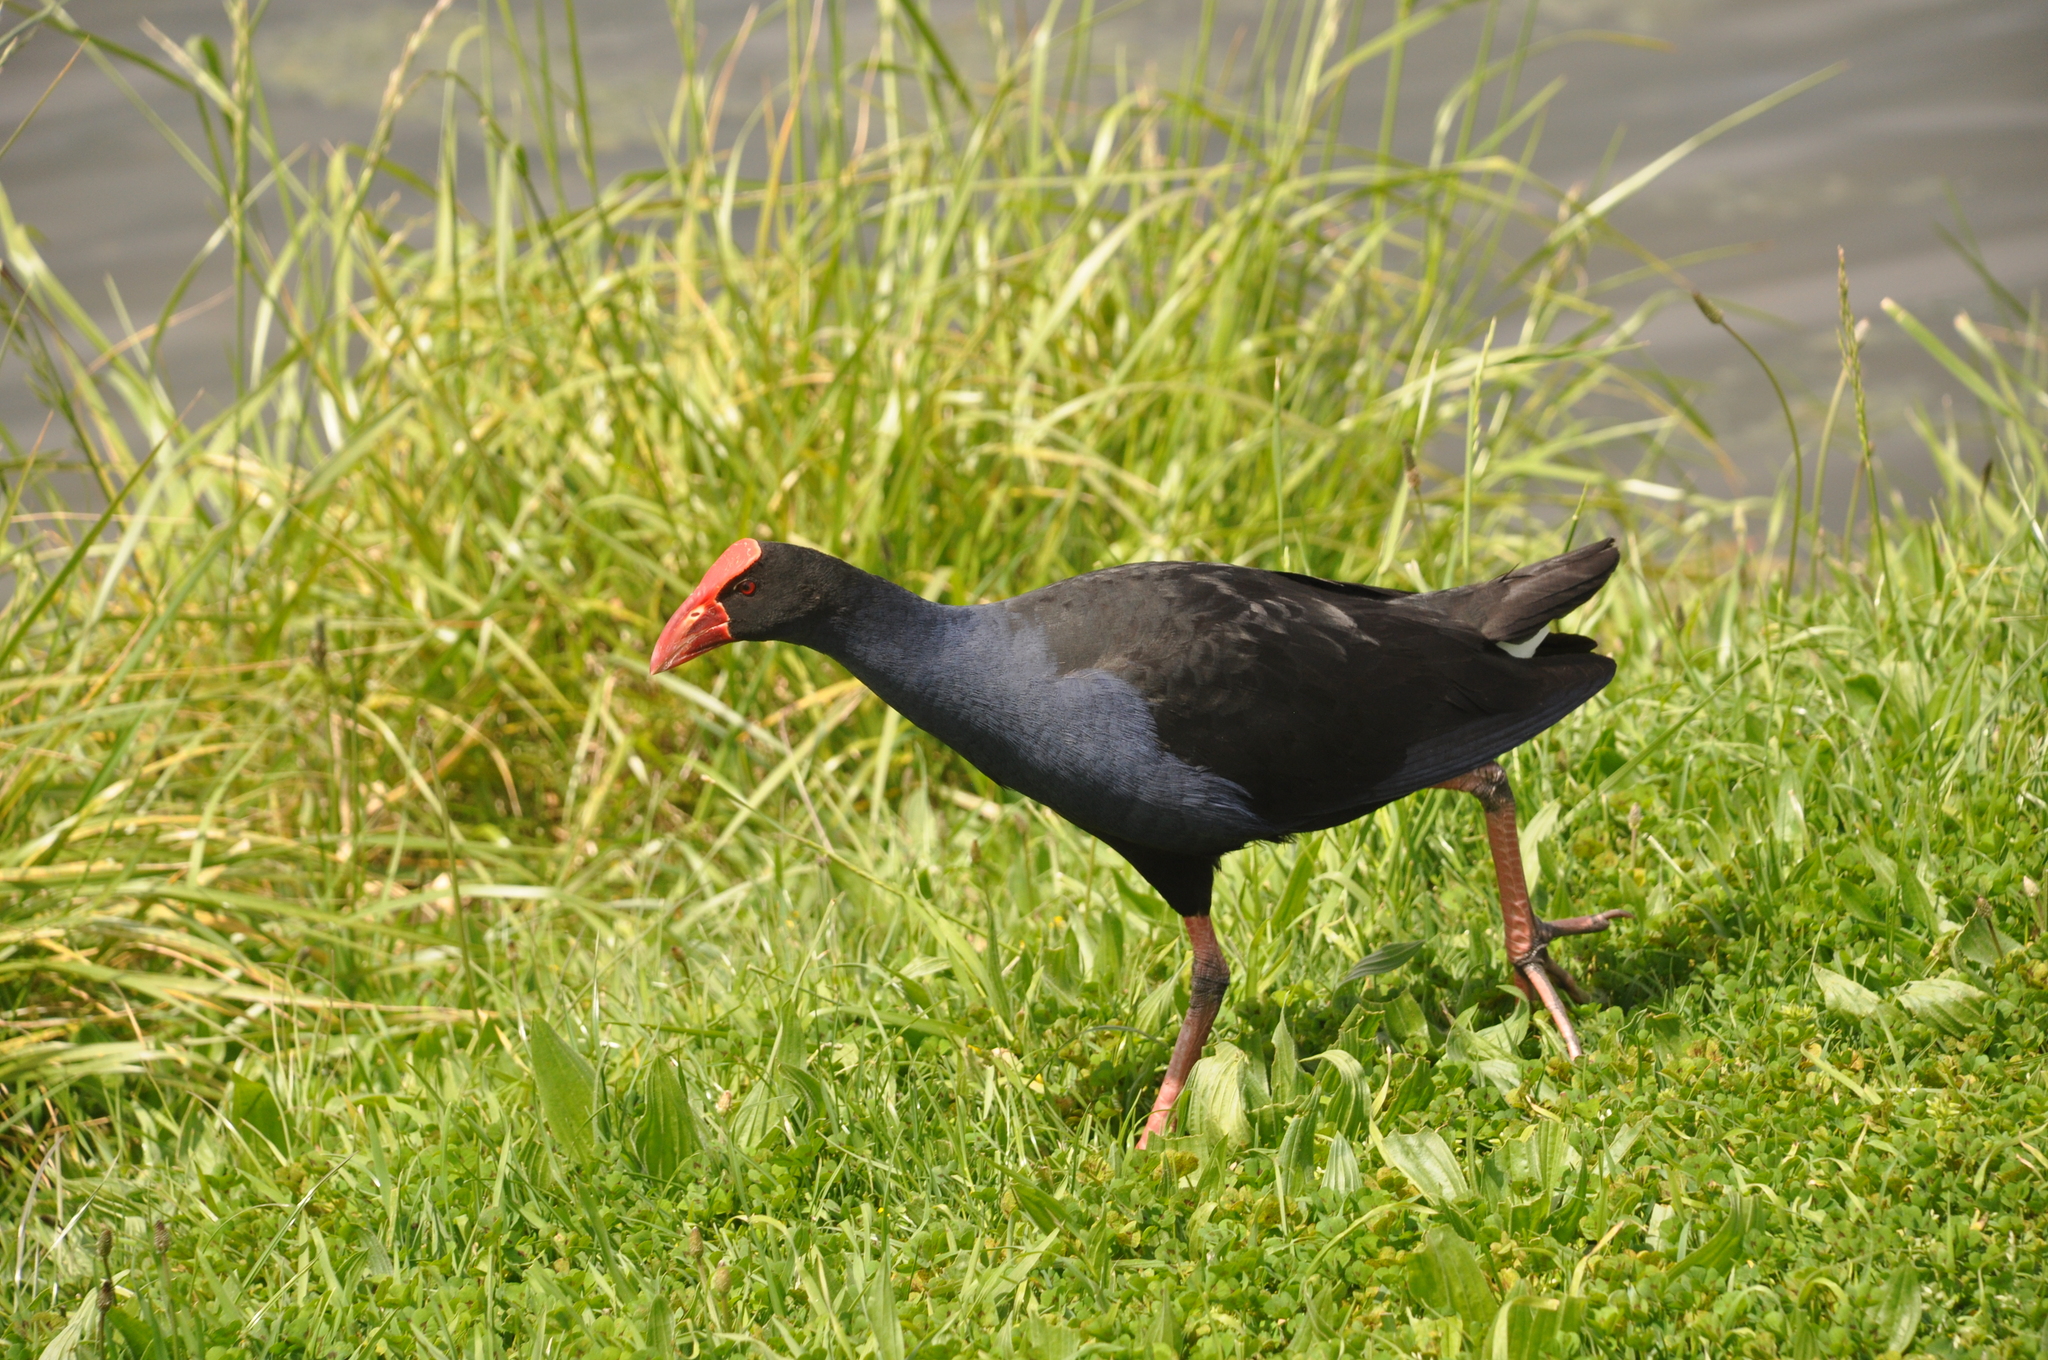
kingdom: Animalia
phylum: Chordata
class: Aves
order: Gruiformes
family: Rallidae
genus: Porphyrio
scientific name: Porphyrio melanotus
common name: Australasian swamphen
